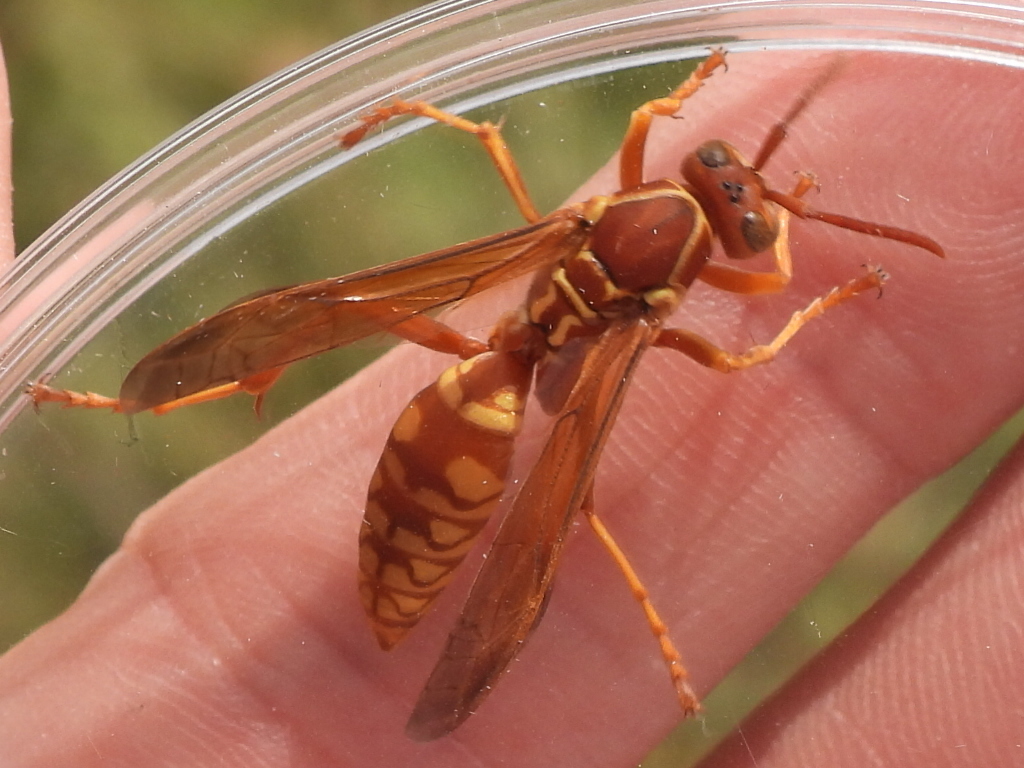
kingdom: Animalia
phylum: Arthropoda
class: Insecta
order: Hymenoptera
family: Eumenidae
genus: Polistes
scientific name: Polistes apachus
